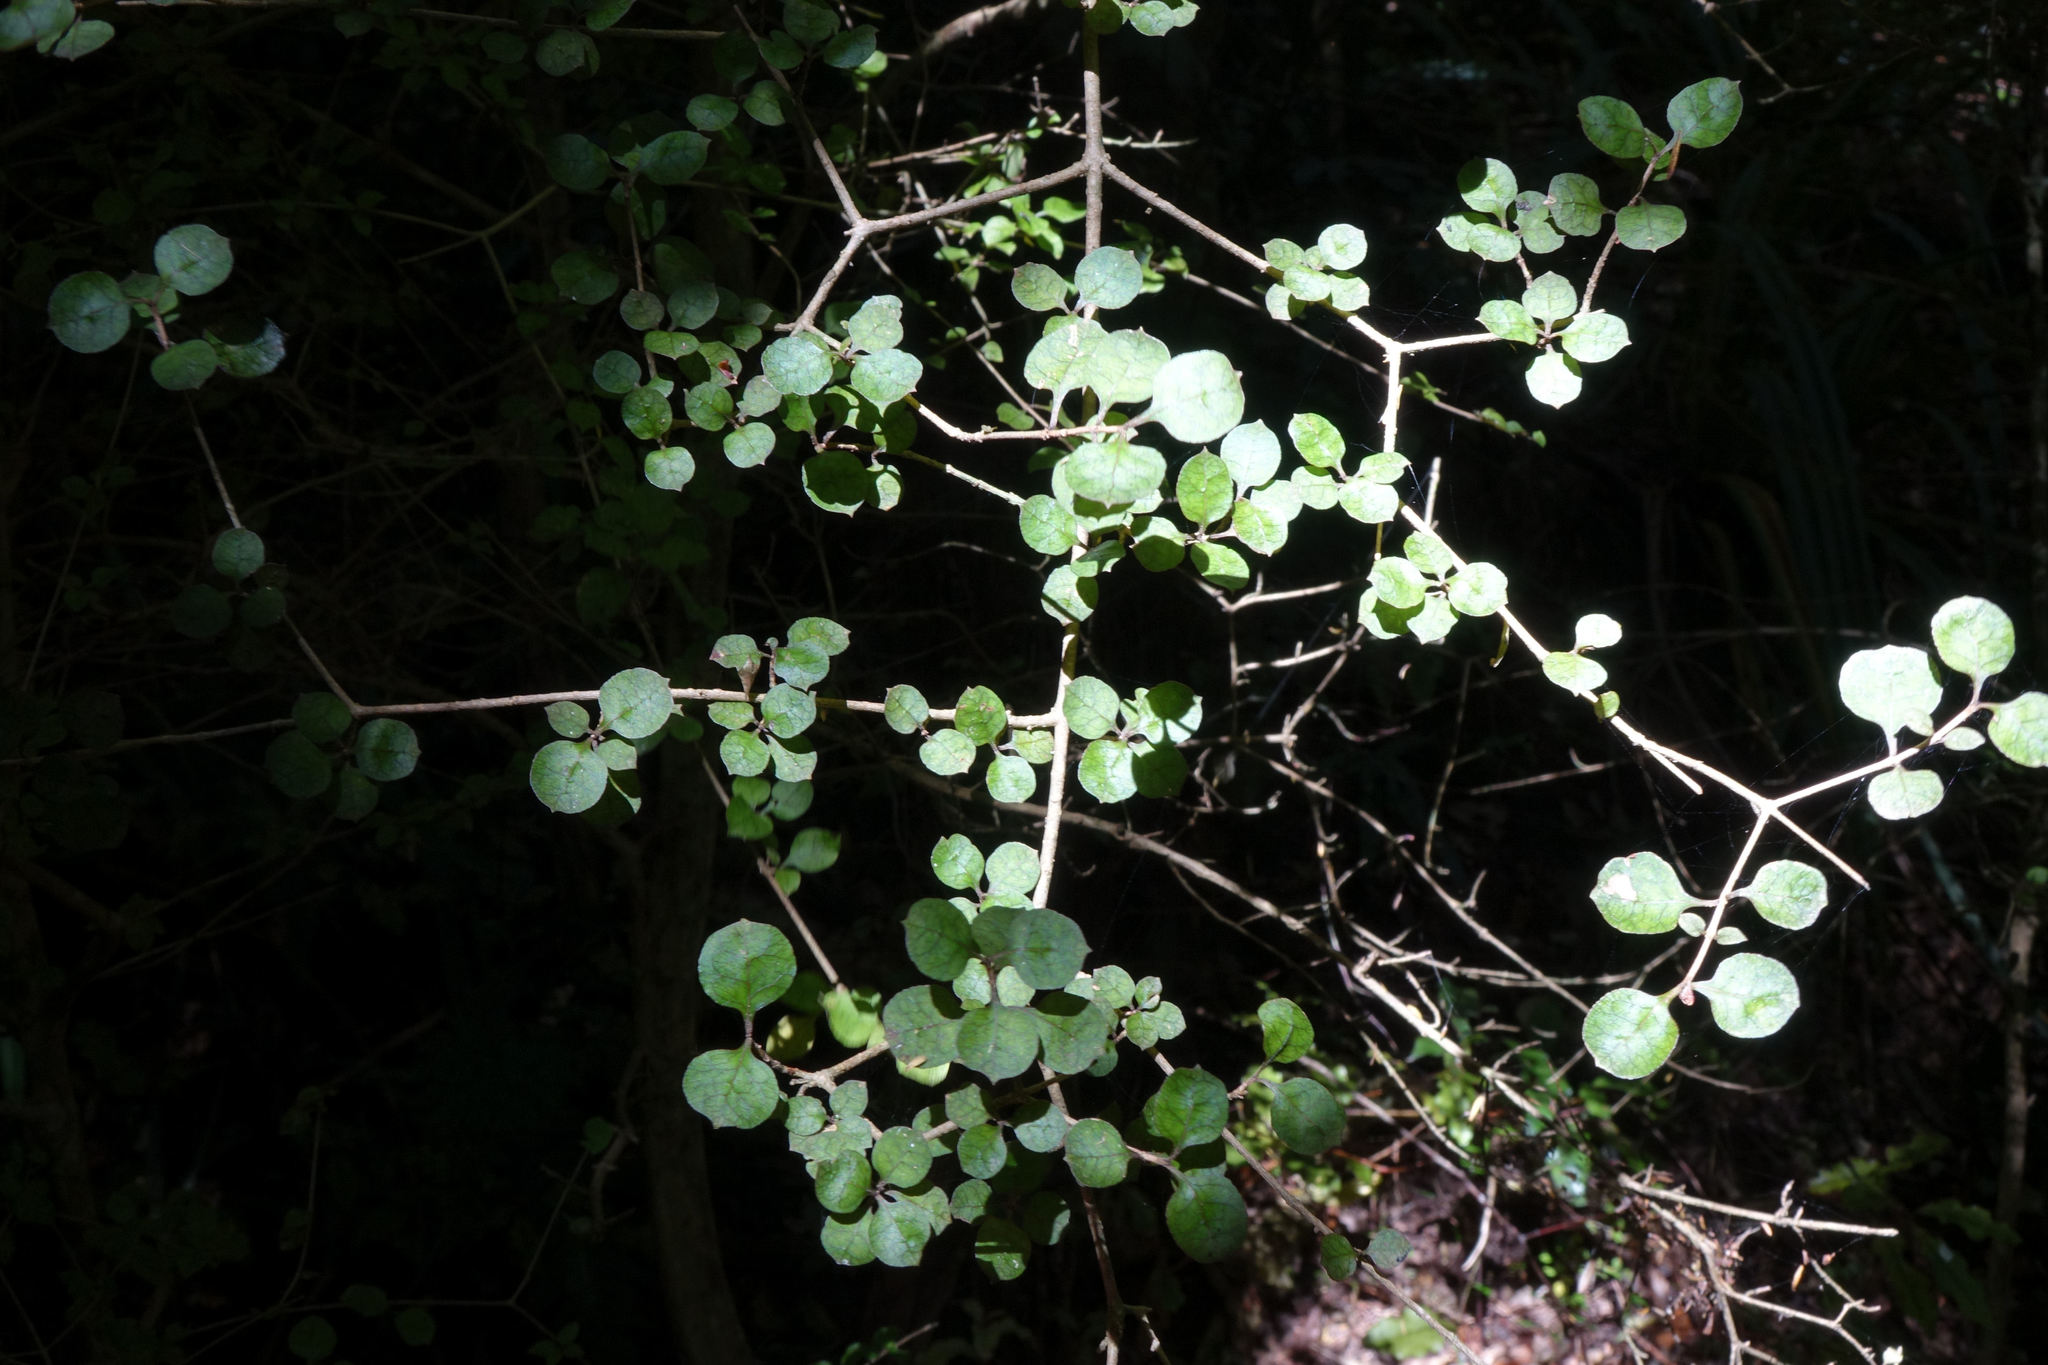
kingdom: Plantae
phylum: Tracheophyta
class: Magnoliopsida
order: Gentianales
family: Rubiaceae
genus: Coprosma
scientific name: Coprosma areolata
